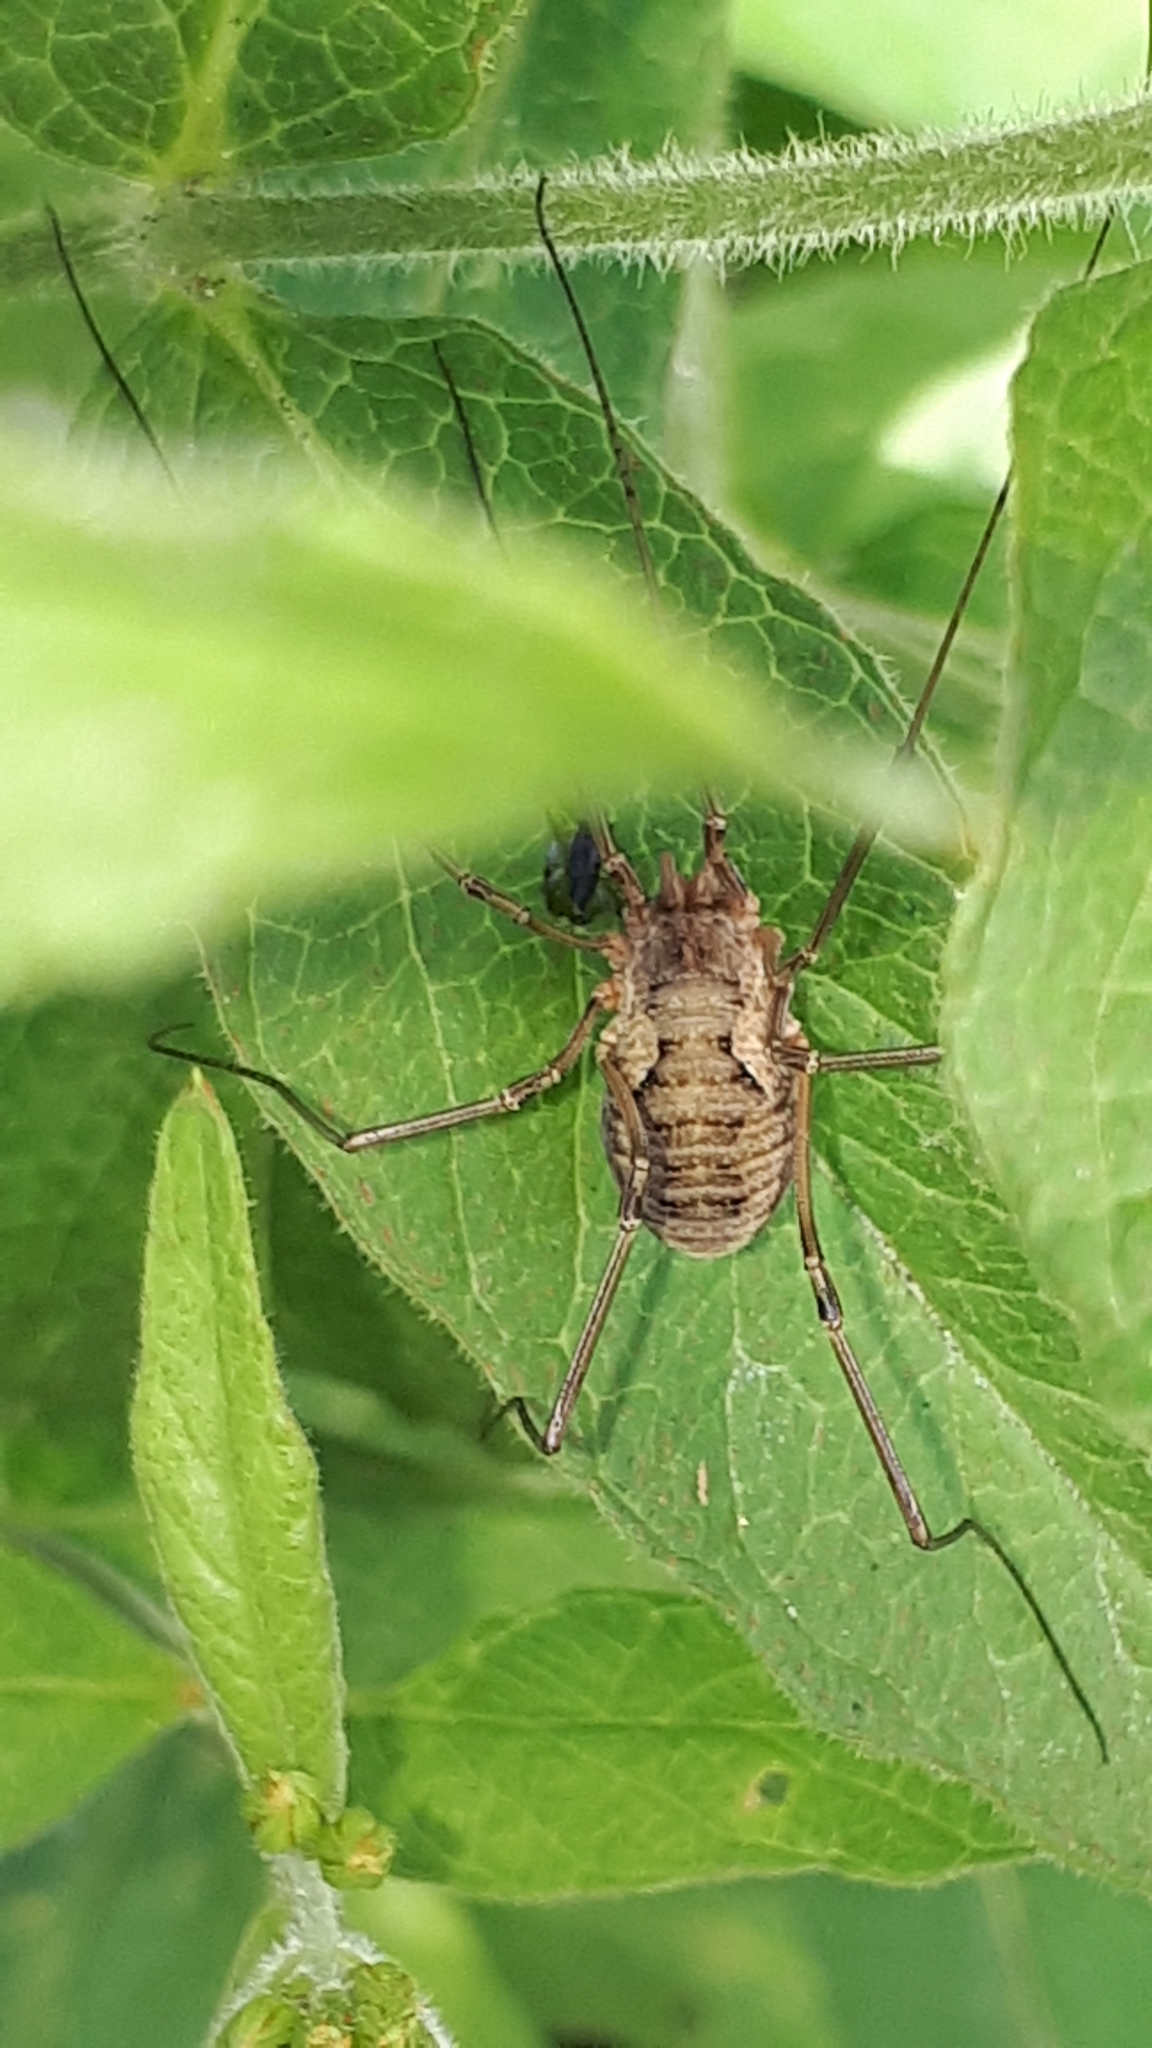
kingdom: Animalia
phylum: Arthropoda
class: Arachnida
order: Opiliones
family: Phalangiidae
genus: Phalangium
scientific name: Phalangium opilio
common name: Daddy longleg
